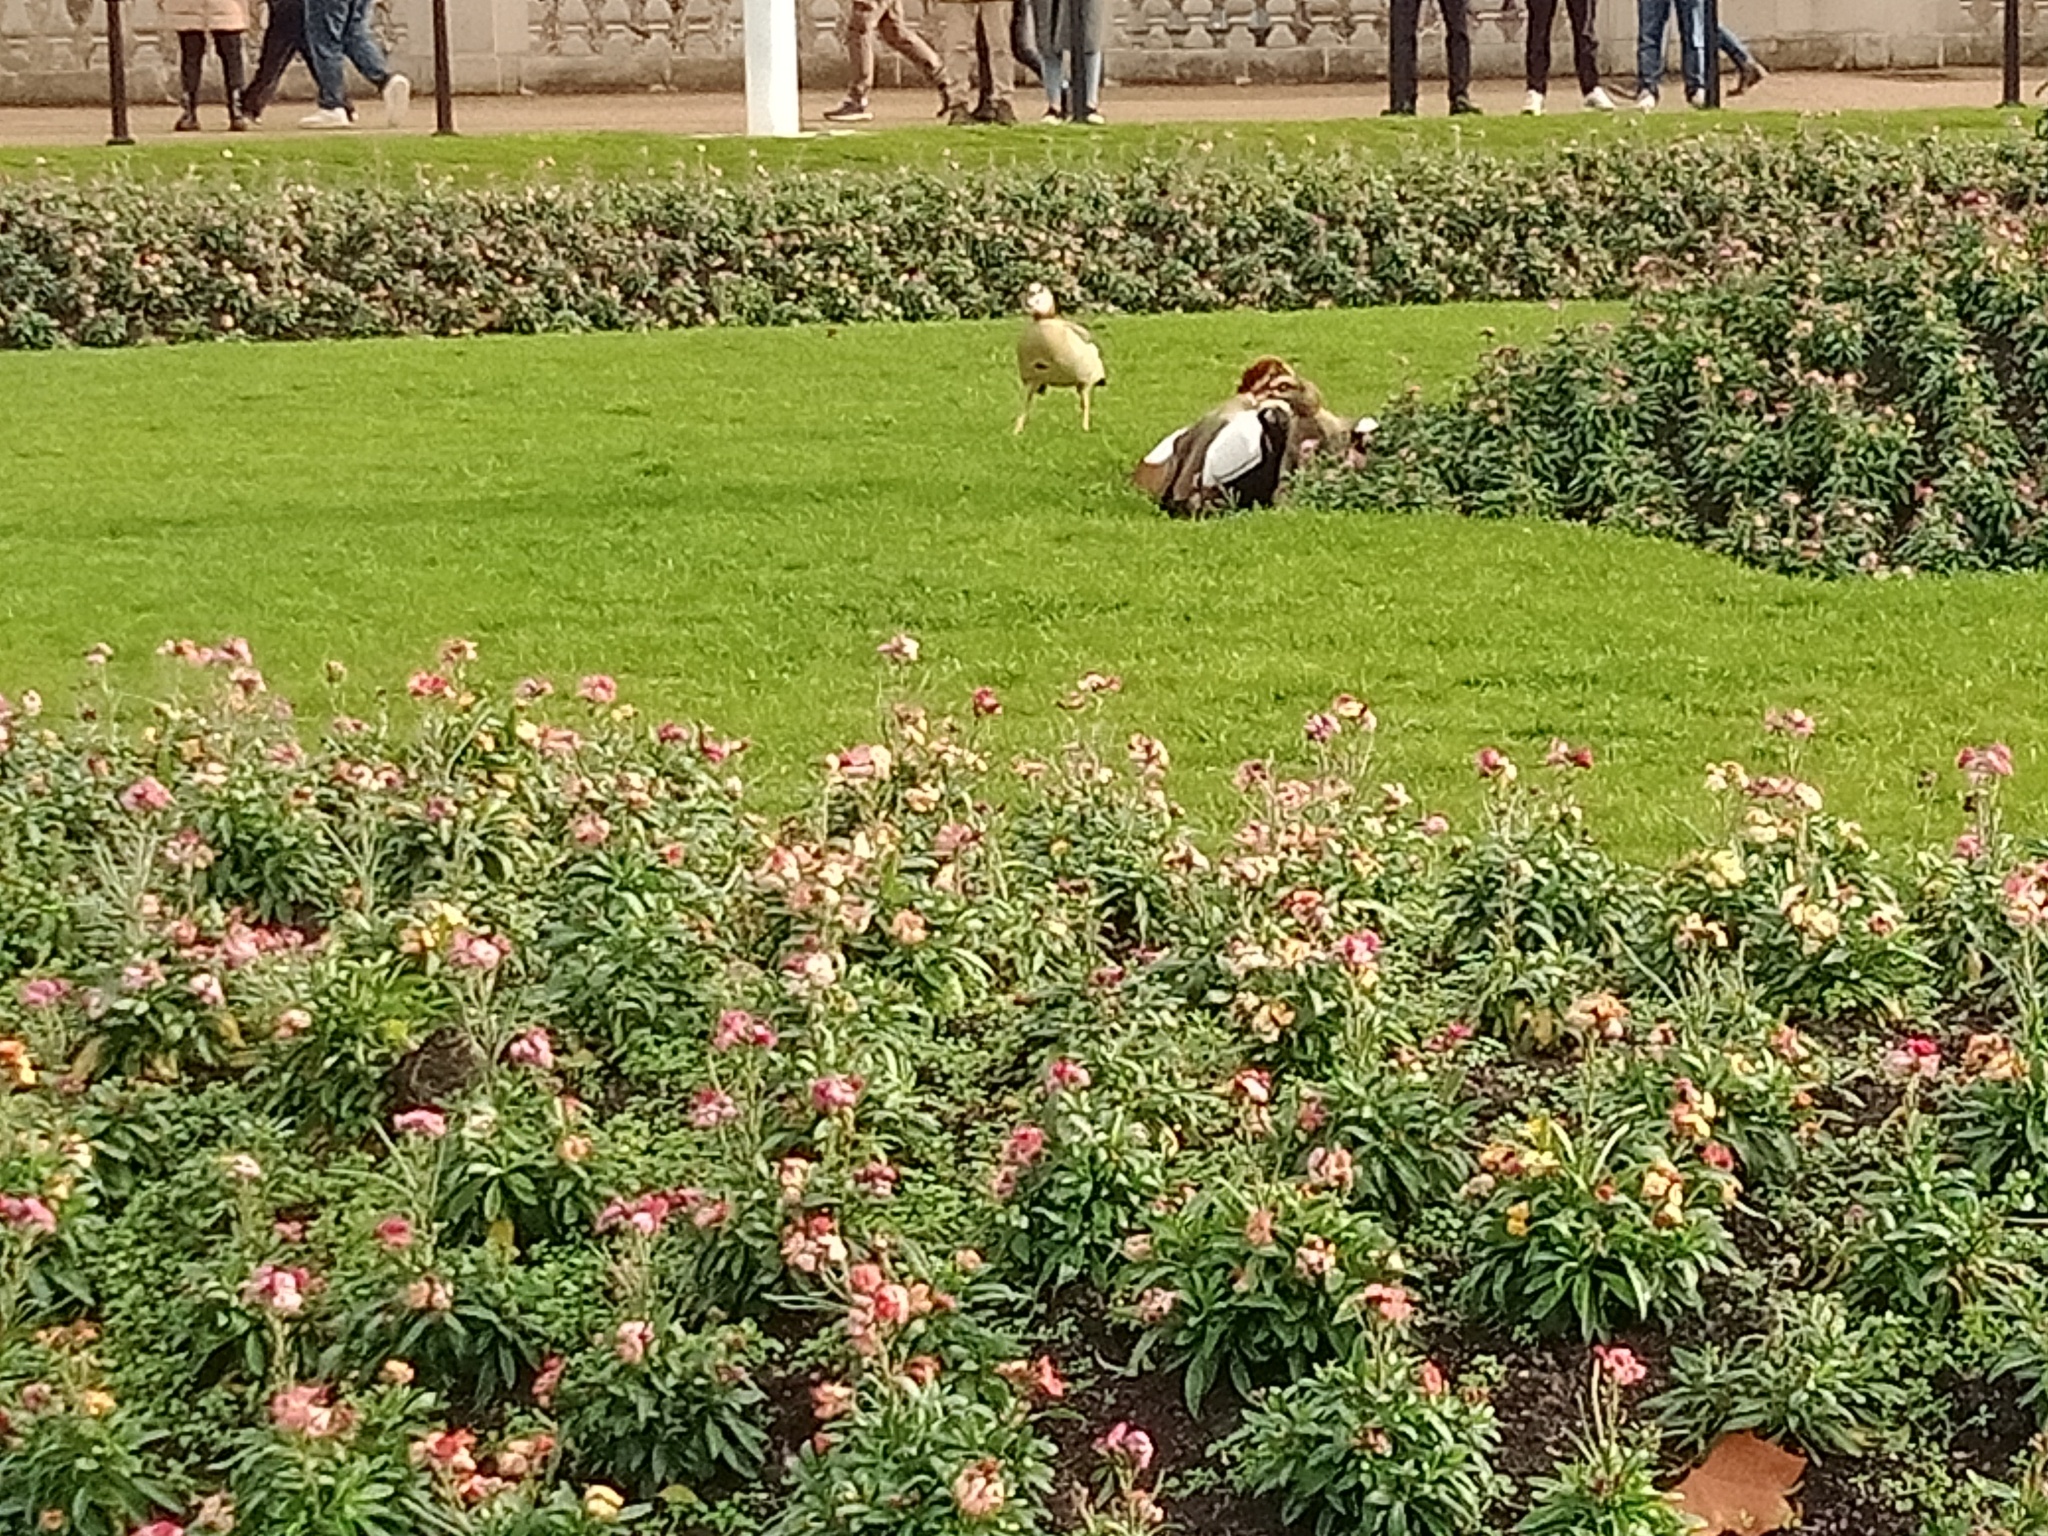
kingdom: Animalia
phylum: Chordata
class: Aves
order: Anseriformes
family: Anatidae
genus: Alopochen
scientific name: Alopochen aegyptiaca
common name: Egyptian goose
